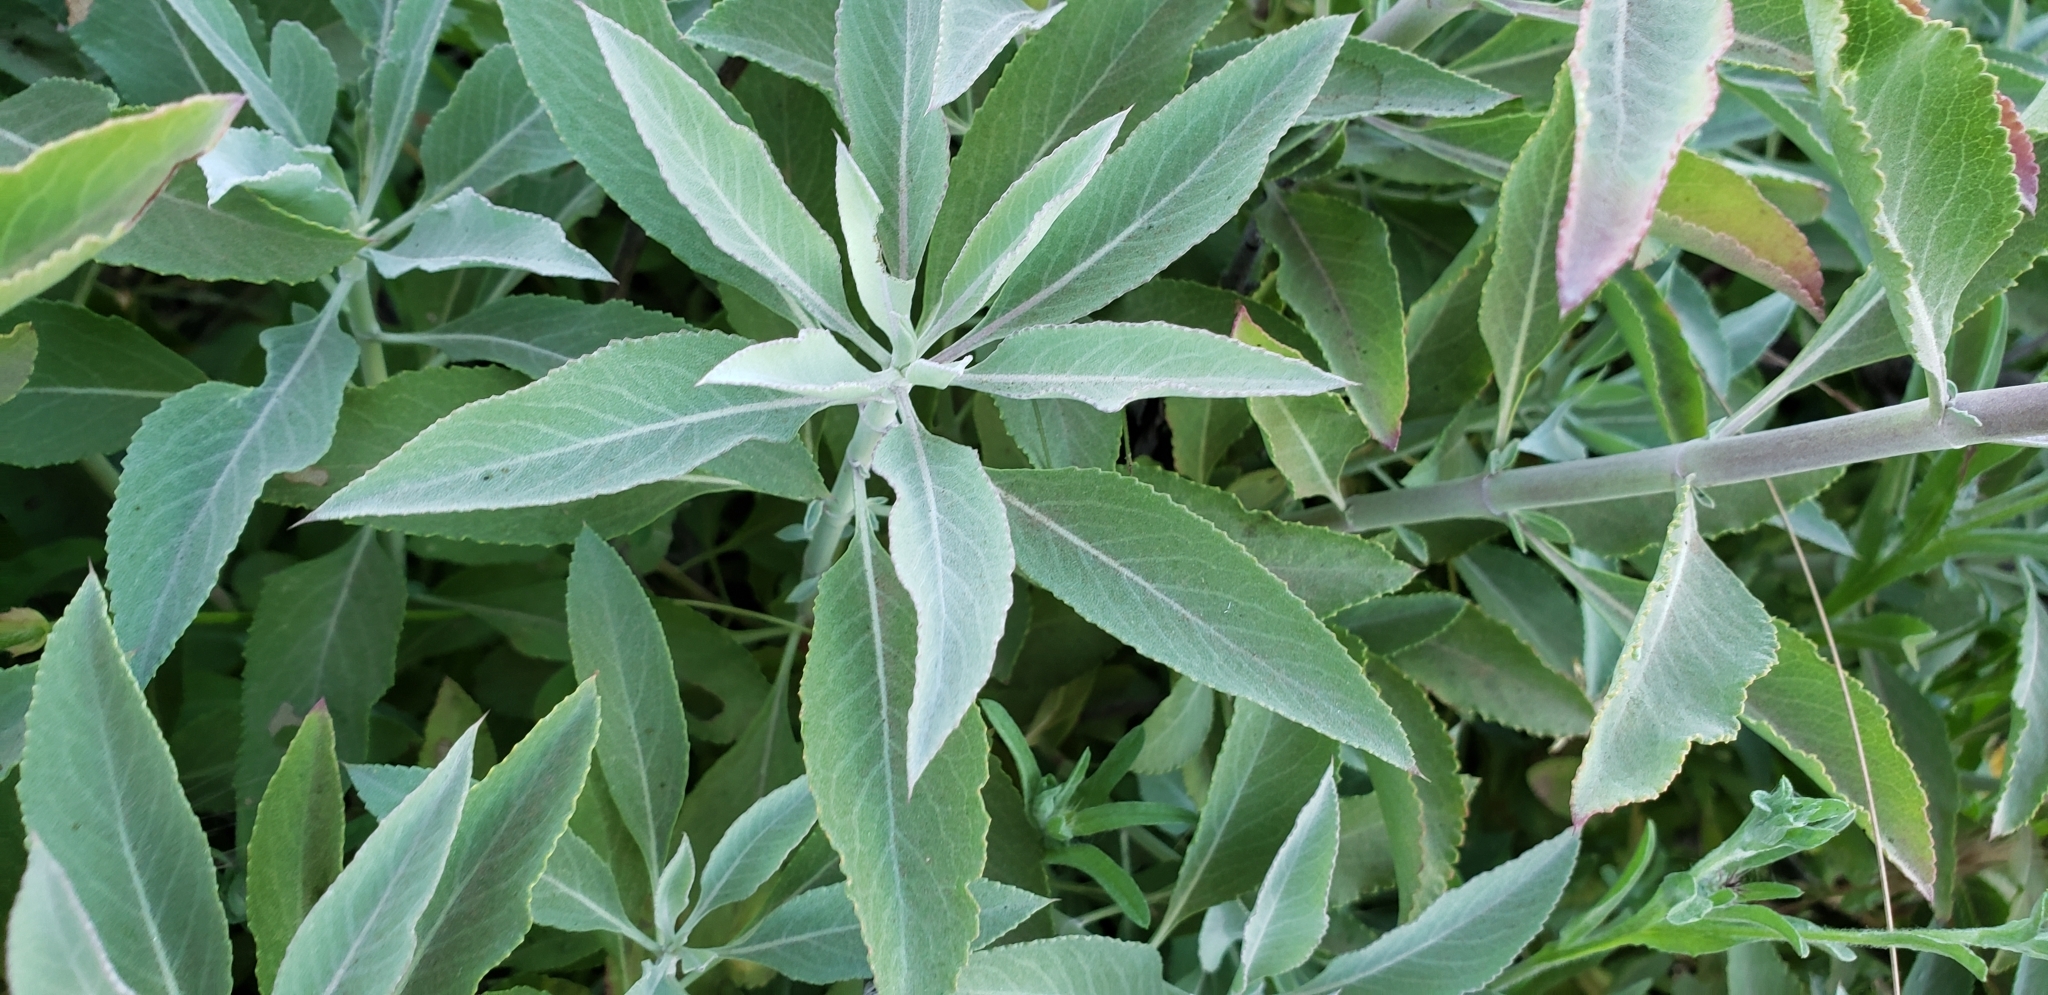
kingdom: Plantae
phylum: Tracheophyta
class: Magnoliopsida
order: Lamiales
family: Lamiaceae
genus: Salvia
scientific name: Salvia apiana
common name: White sage
